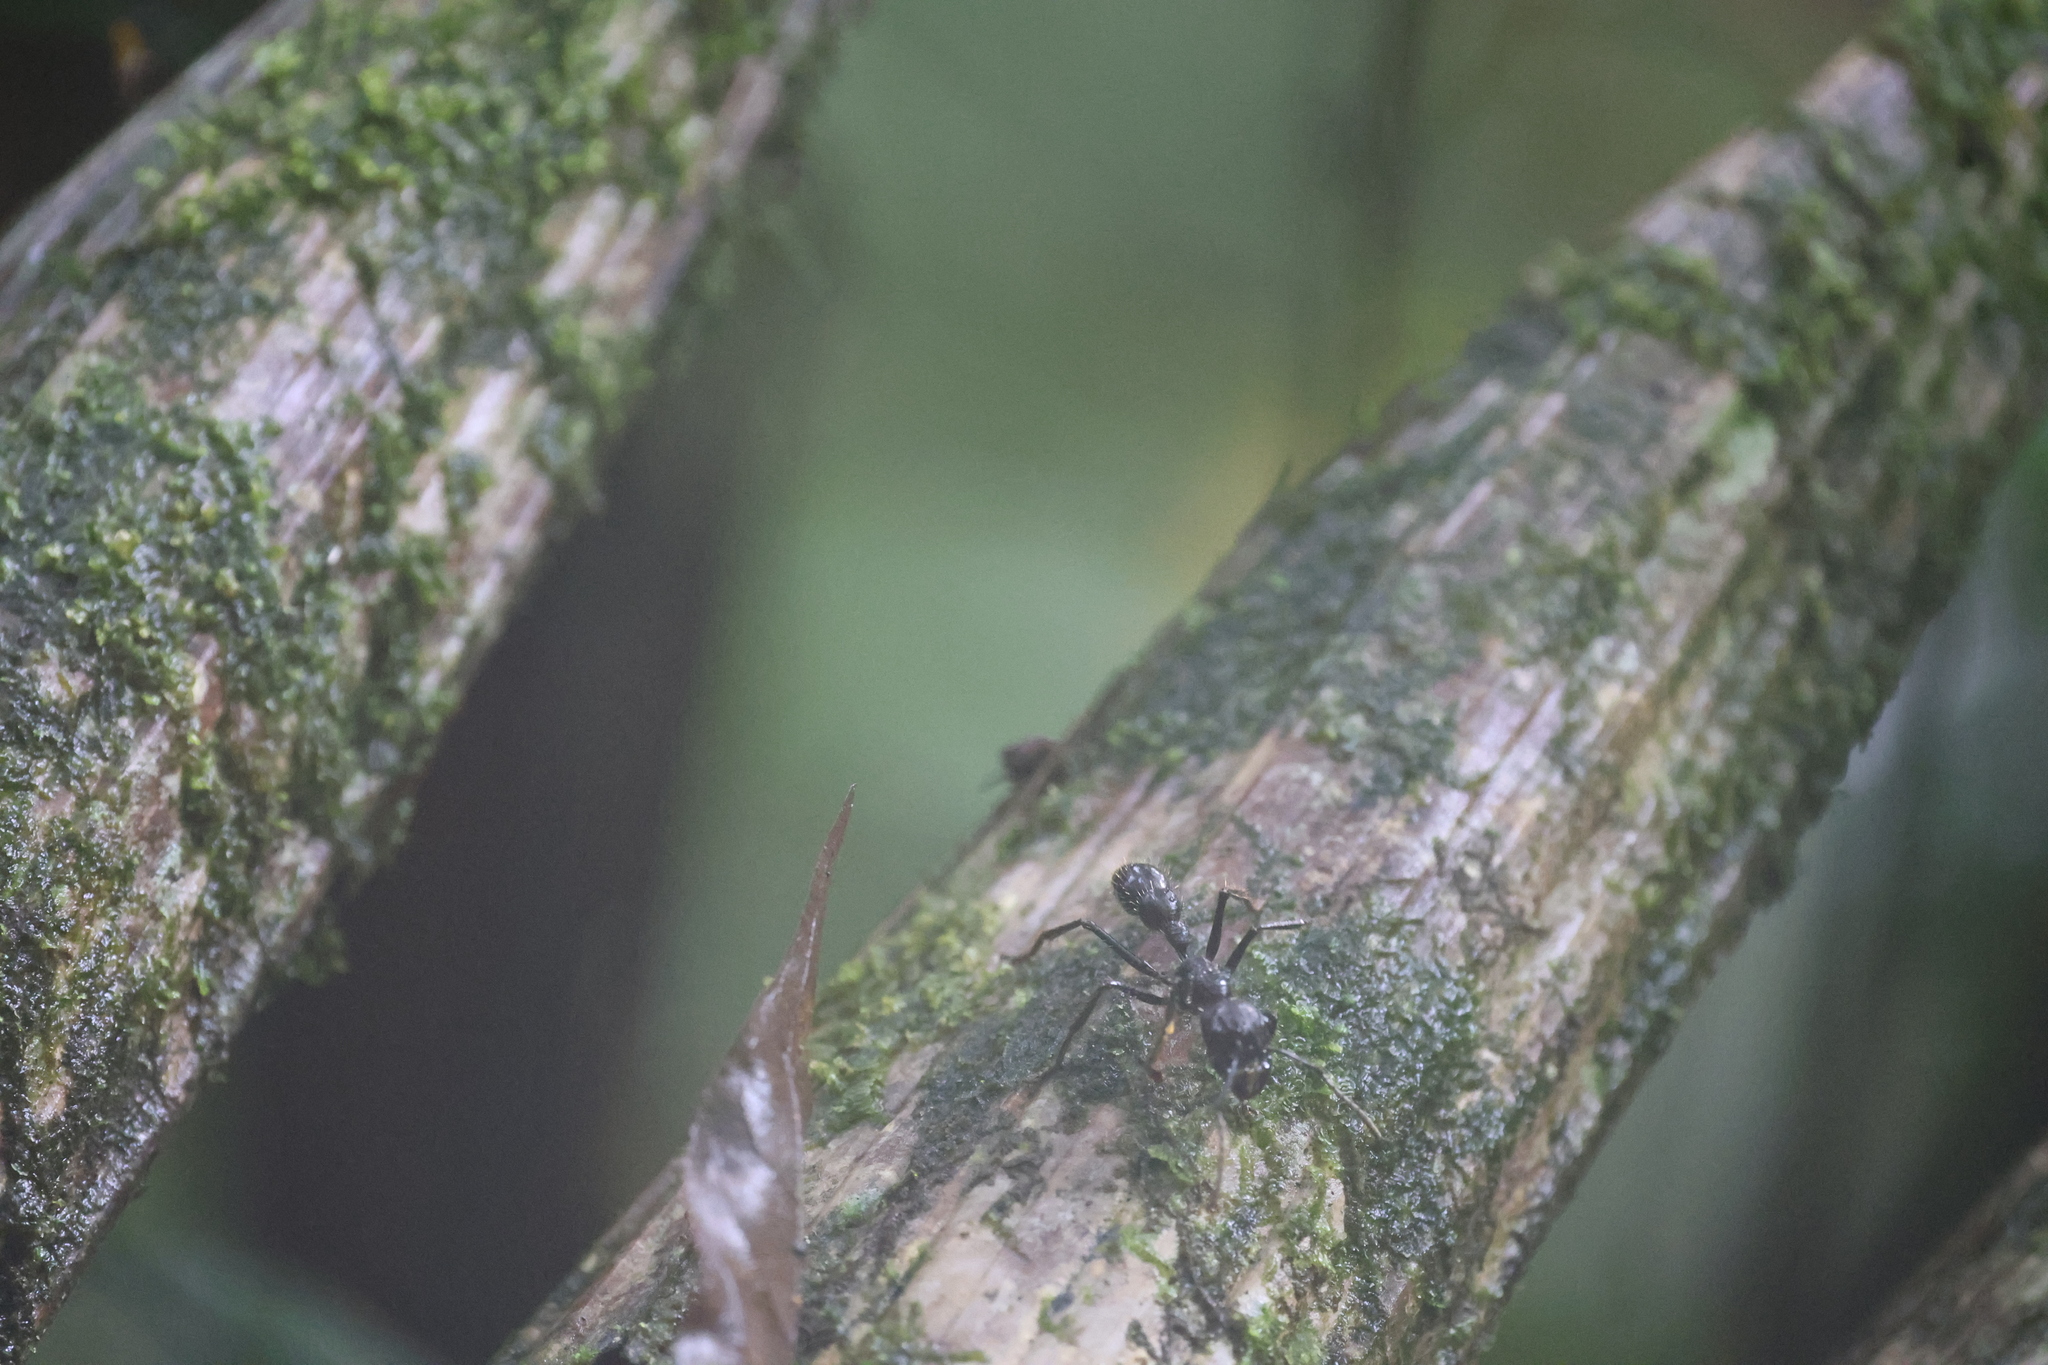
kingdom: Animalia
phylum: Arthropoda
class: Insecta
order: Hymenoptera
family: Formicidae
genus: Paraponera
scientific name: Paraponera clavata
